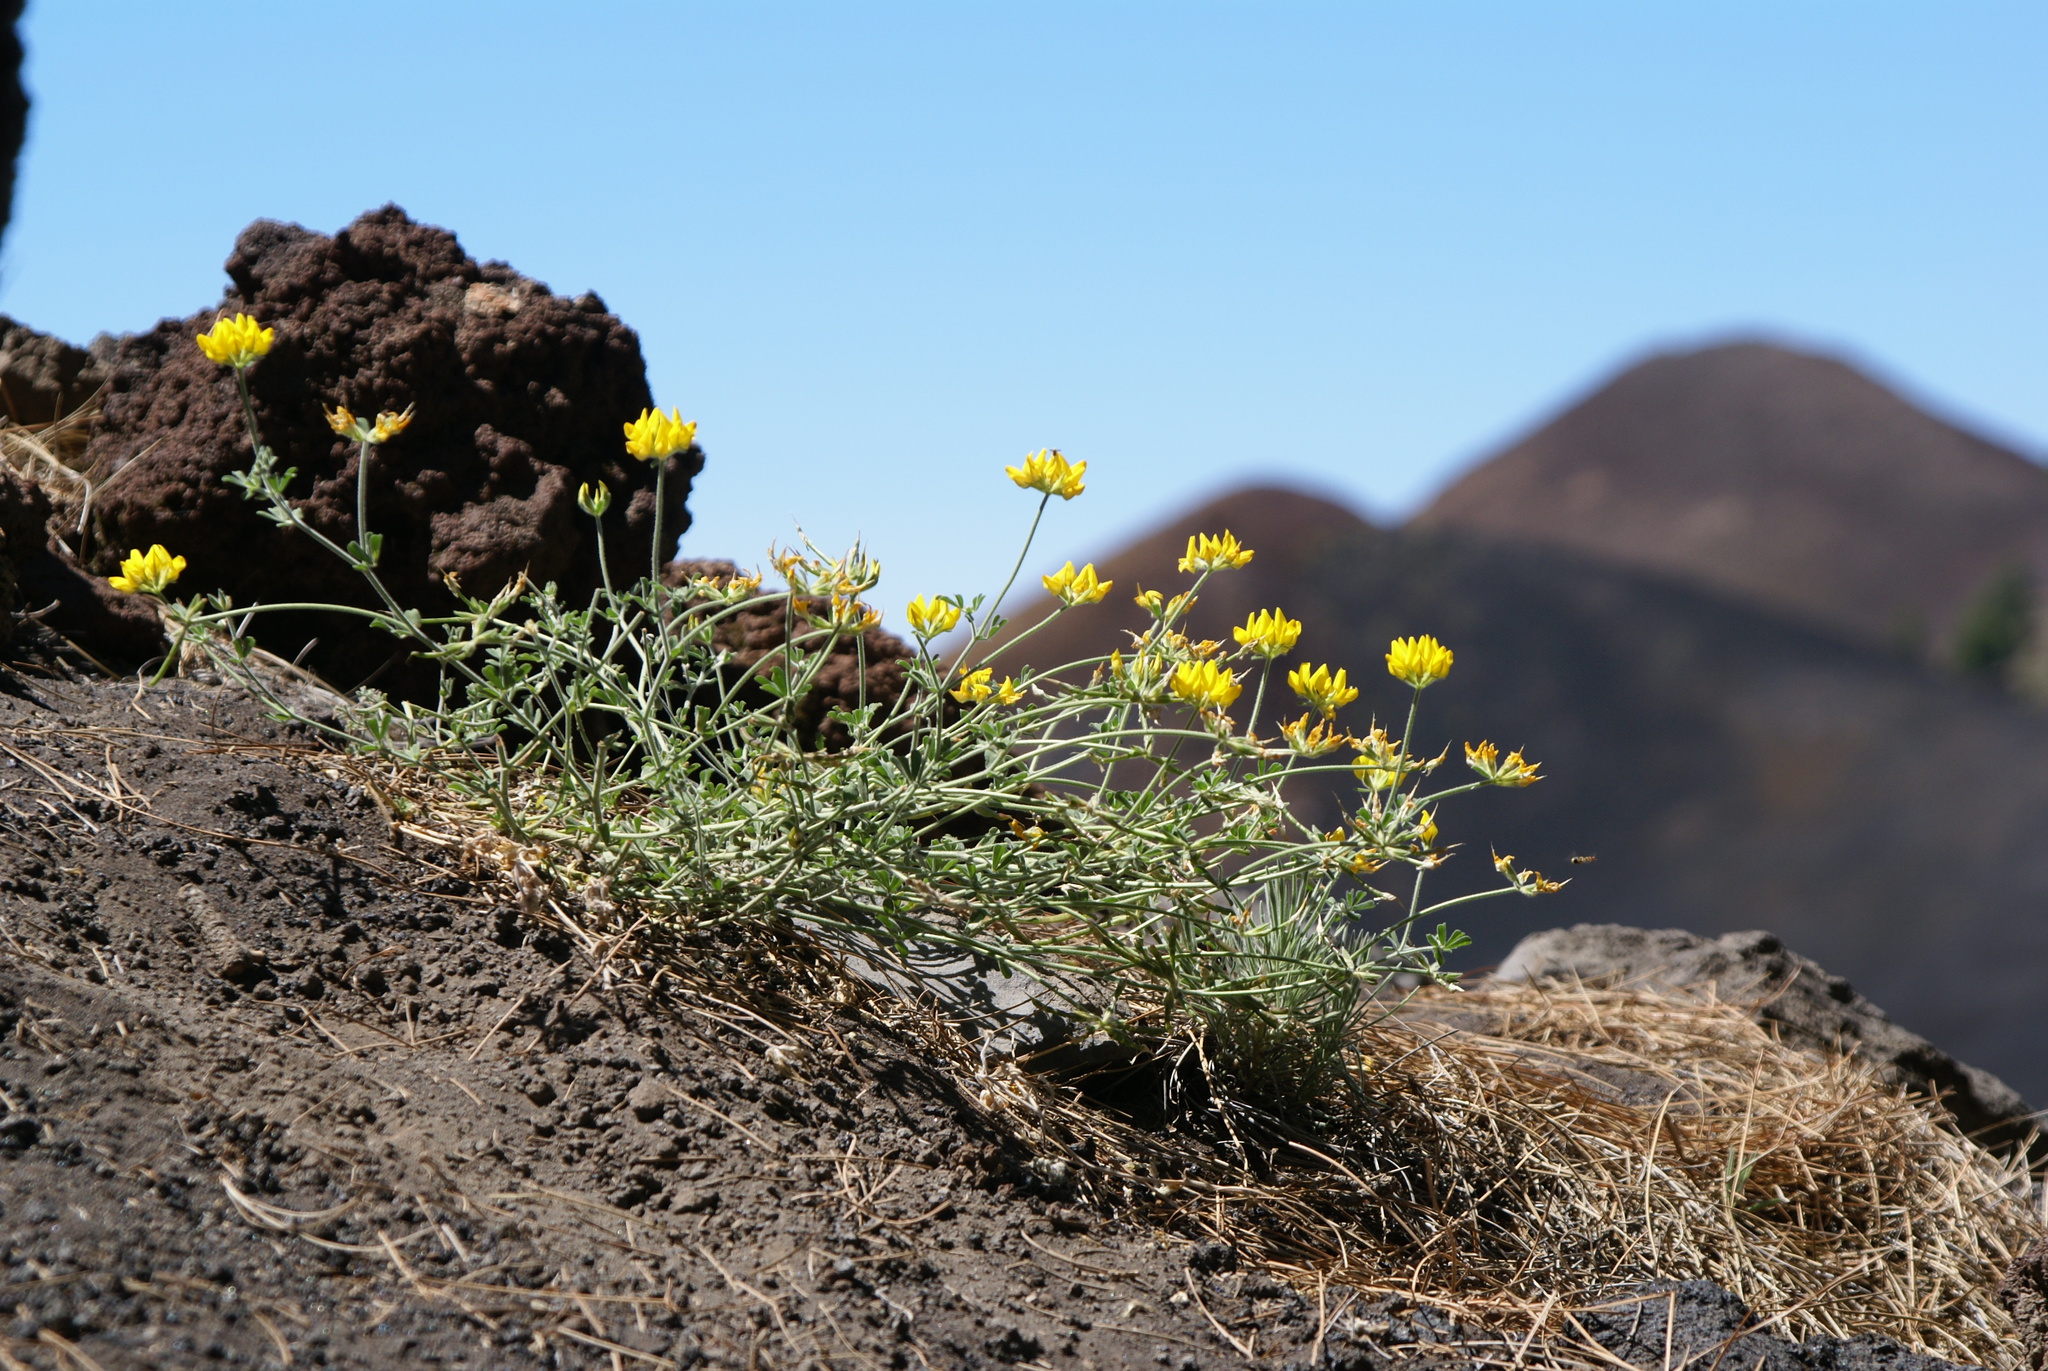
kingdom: Plantae
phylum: Tracheophyta
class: Magnoliopsida
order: Fabales
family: Fabaceae
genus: Lotus
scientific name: Lotus campylocladus
